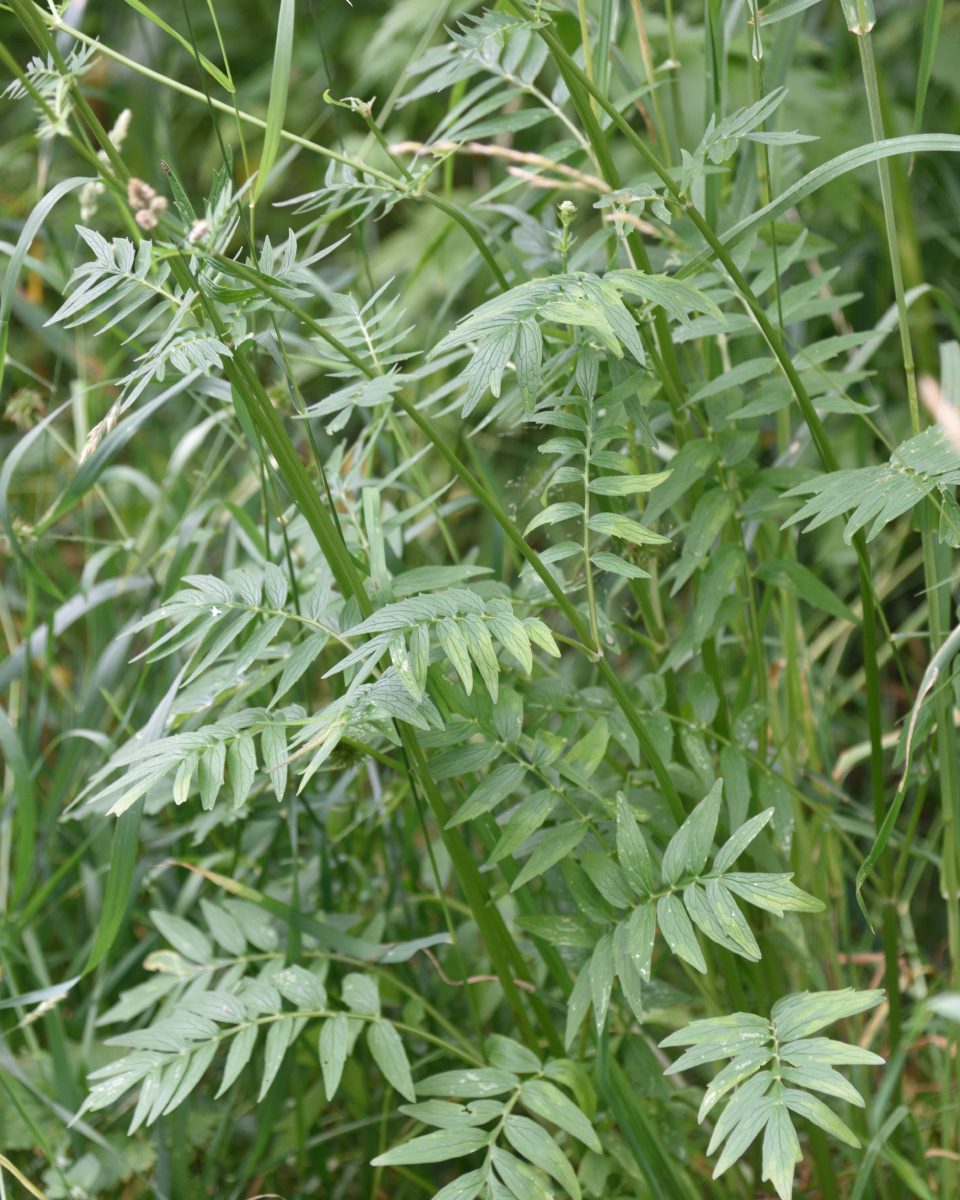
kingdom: Plantae
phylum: Tracheophyta
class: Magnoliopsida
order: Dipsacales
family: Caprifoliaceae
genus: Valeriana
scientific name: Valeriana officinalis
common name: Common valerian
